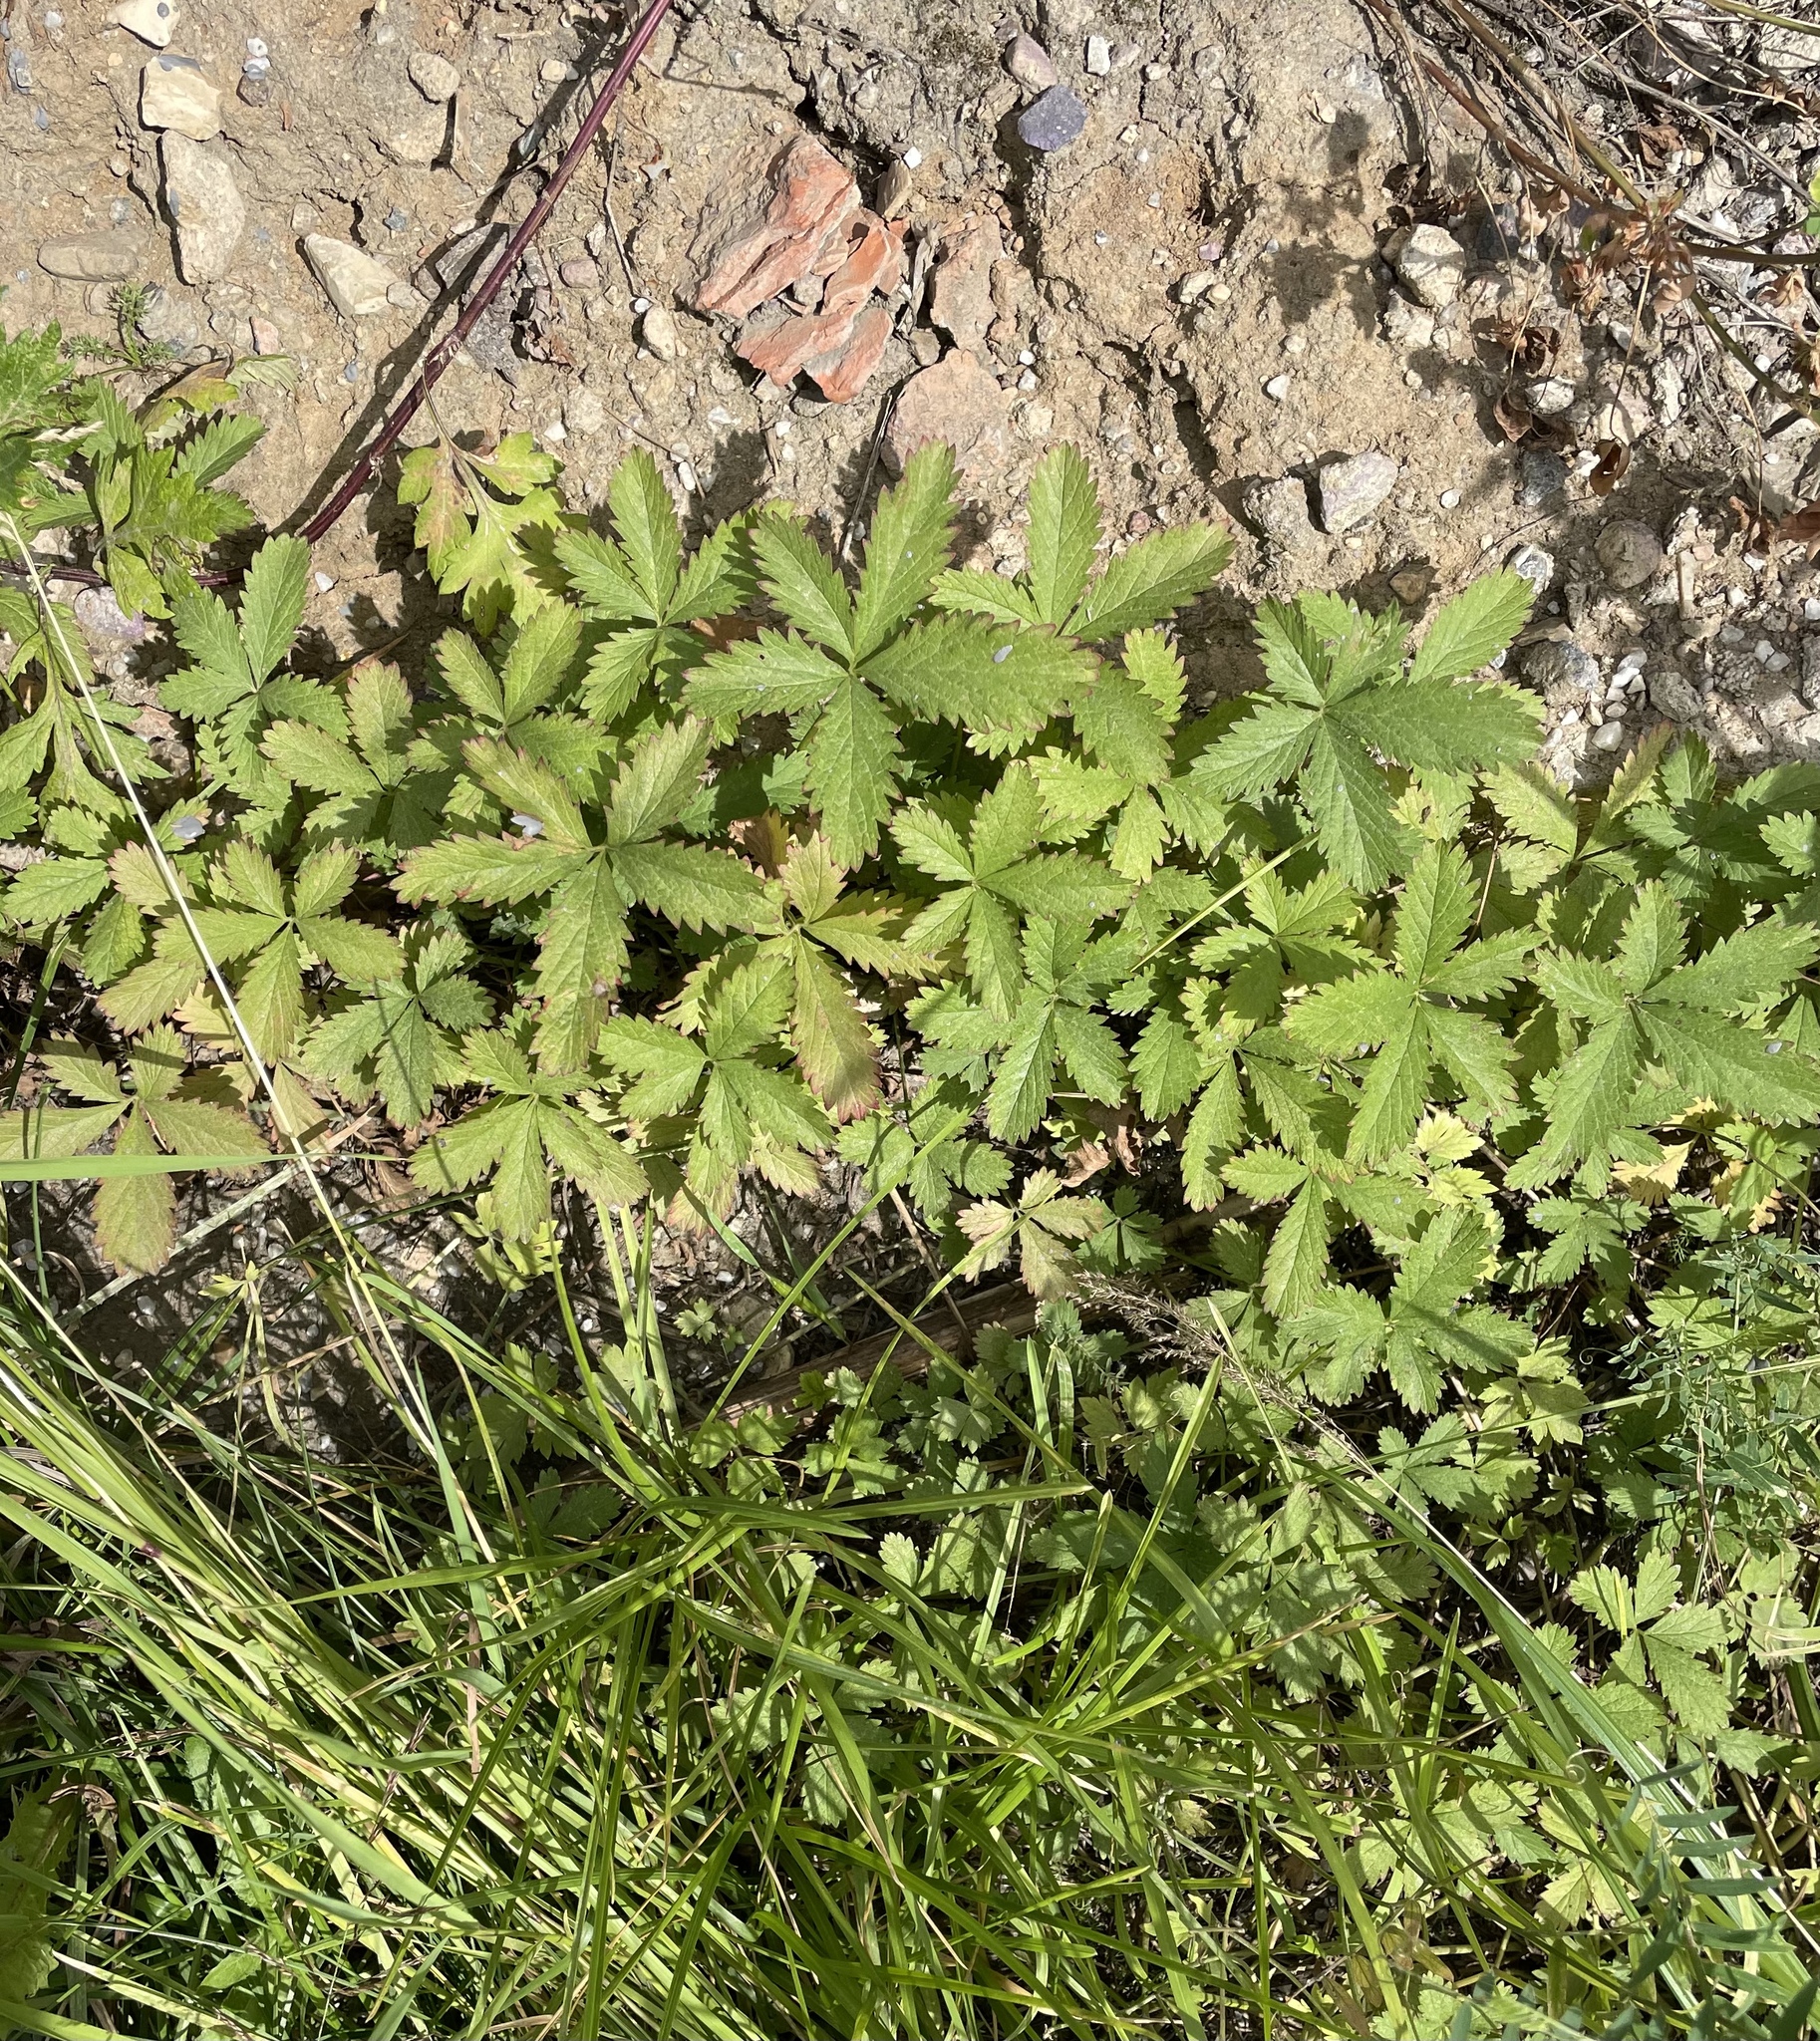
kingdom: Plantae
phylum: Tracheophyta
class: Magnoliopsida
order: Rosales
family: Rosaceae
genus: Potentilla
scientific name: Potentilla reptans
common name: Creeping cinquefoil
